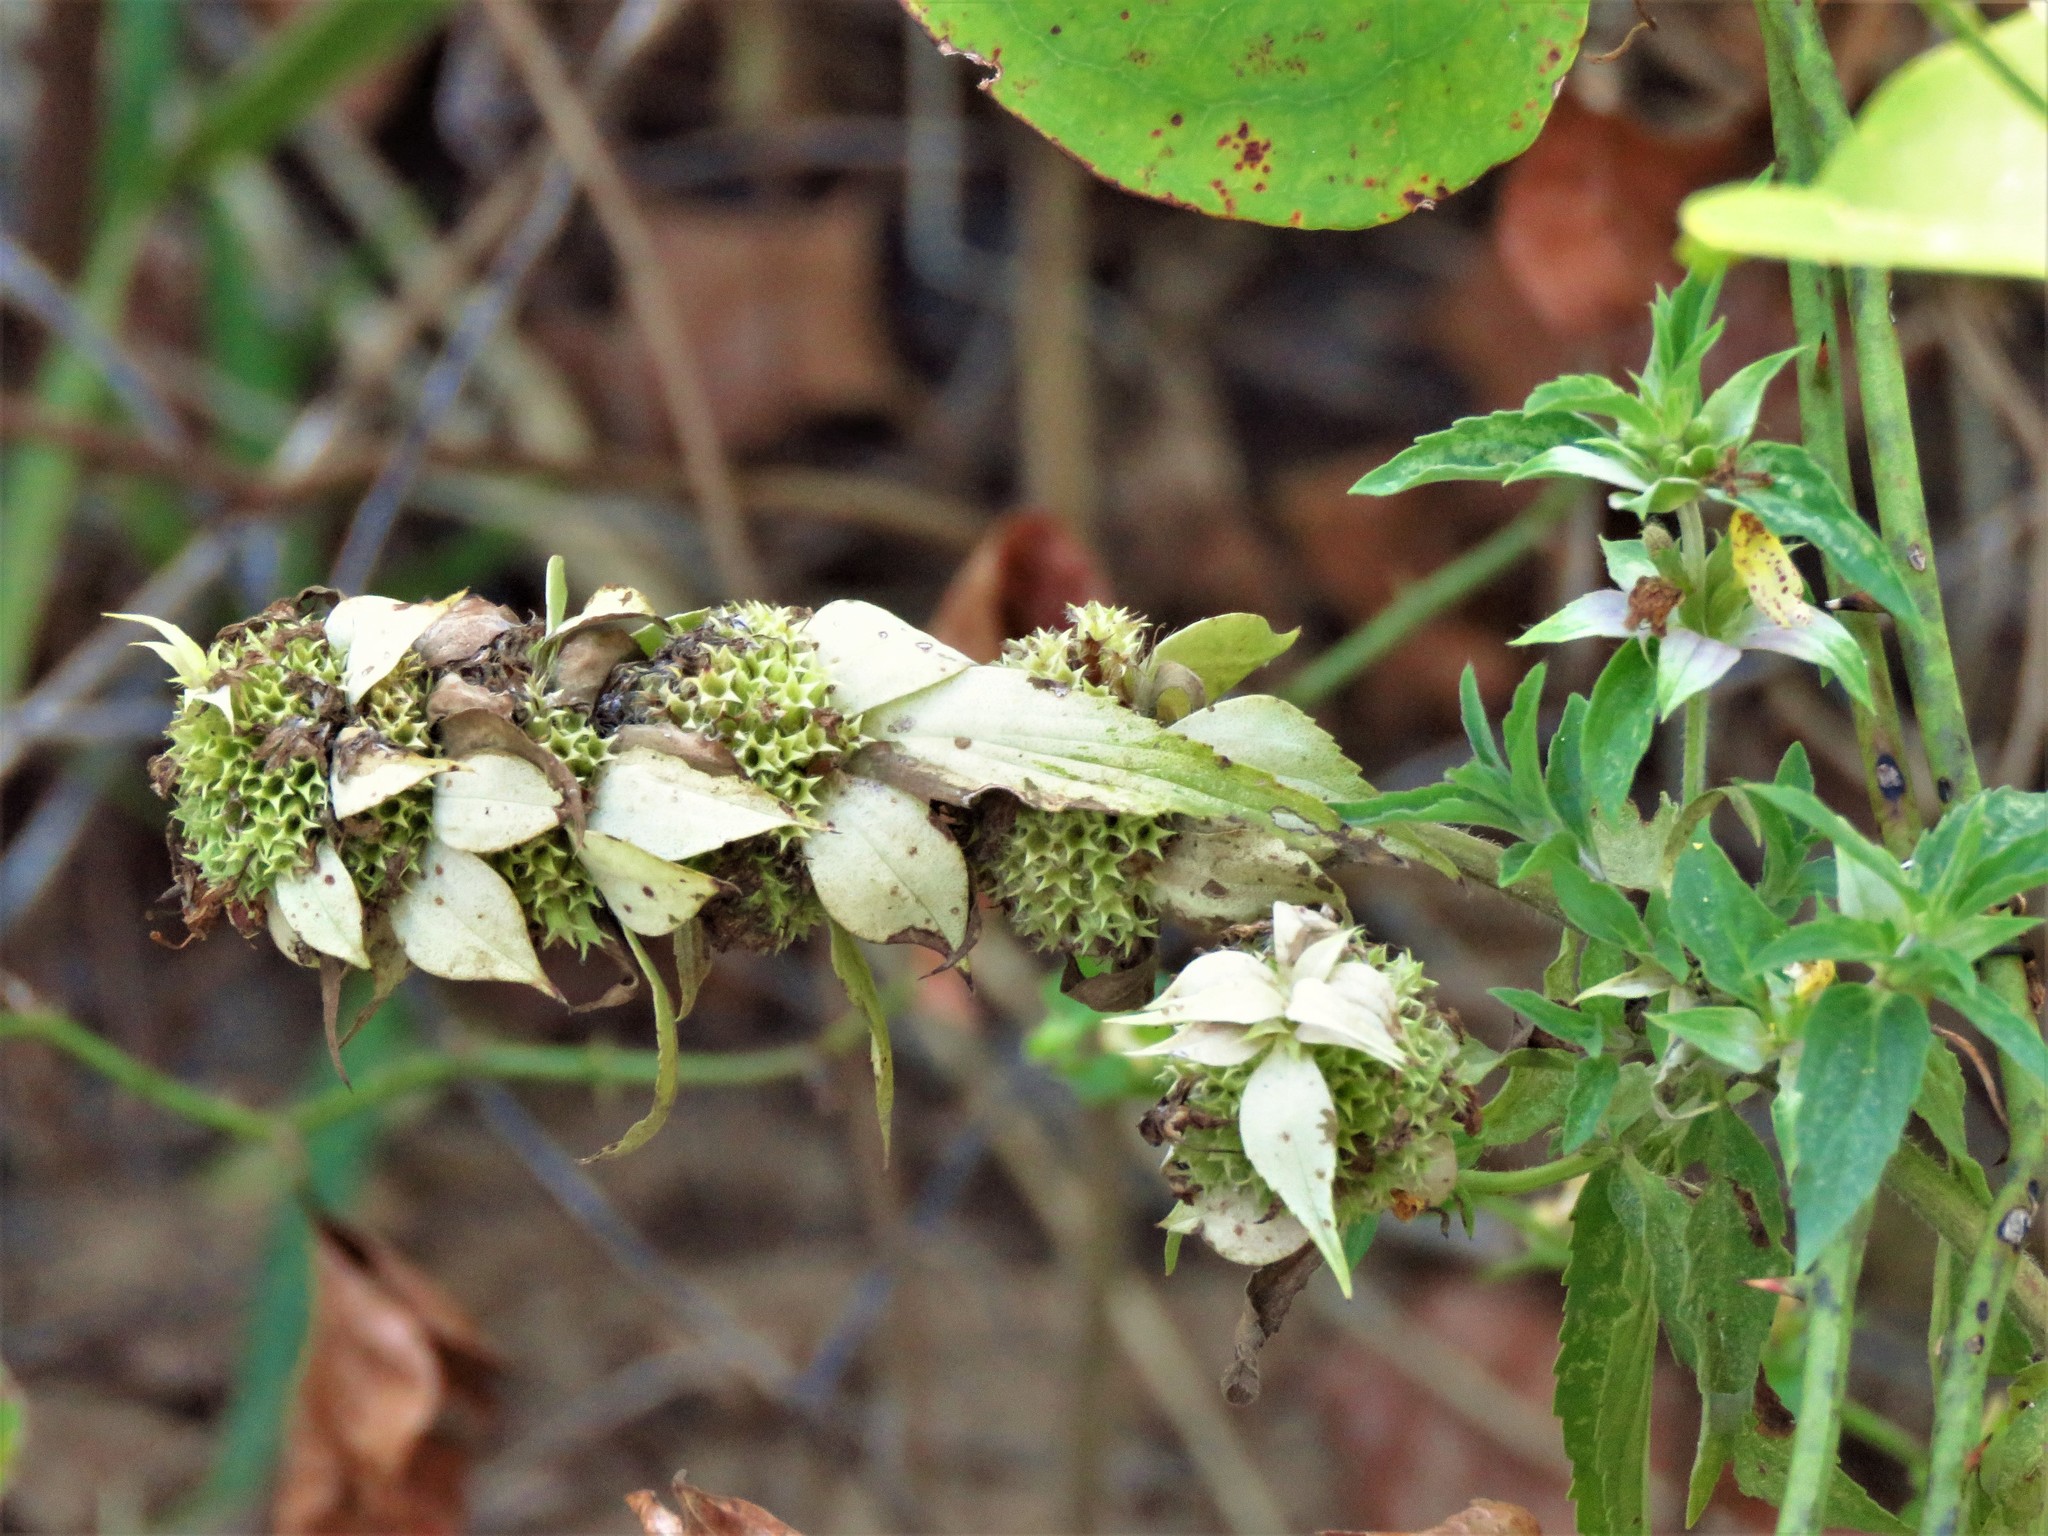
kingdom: Plantae
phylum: Tracheophyta
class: Magnoliopsida
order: Lamiales
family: Lamiaceae
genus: Monarda
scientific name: Monarda punctata
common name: Dotted monarda
